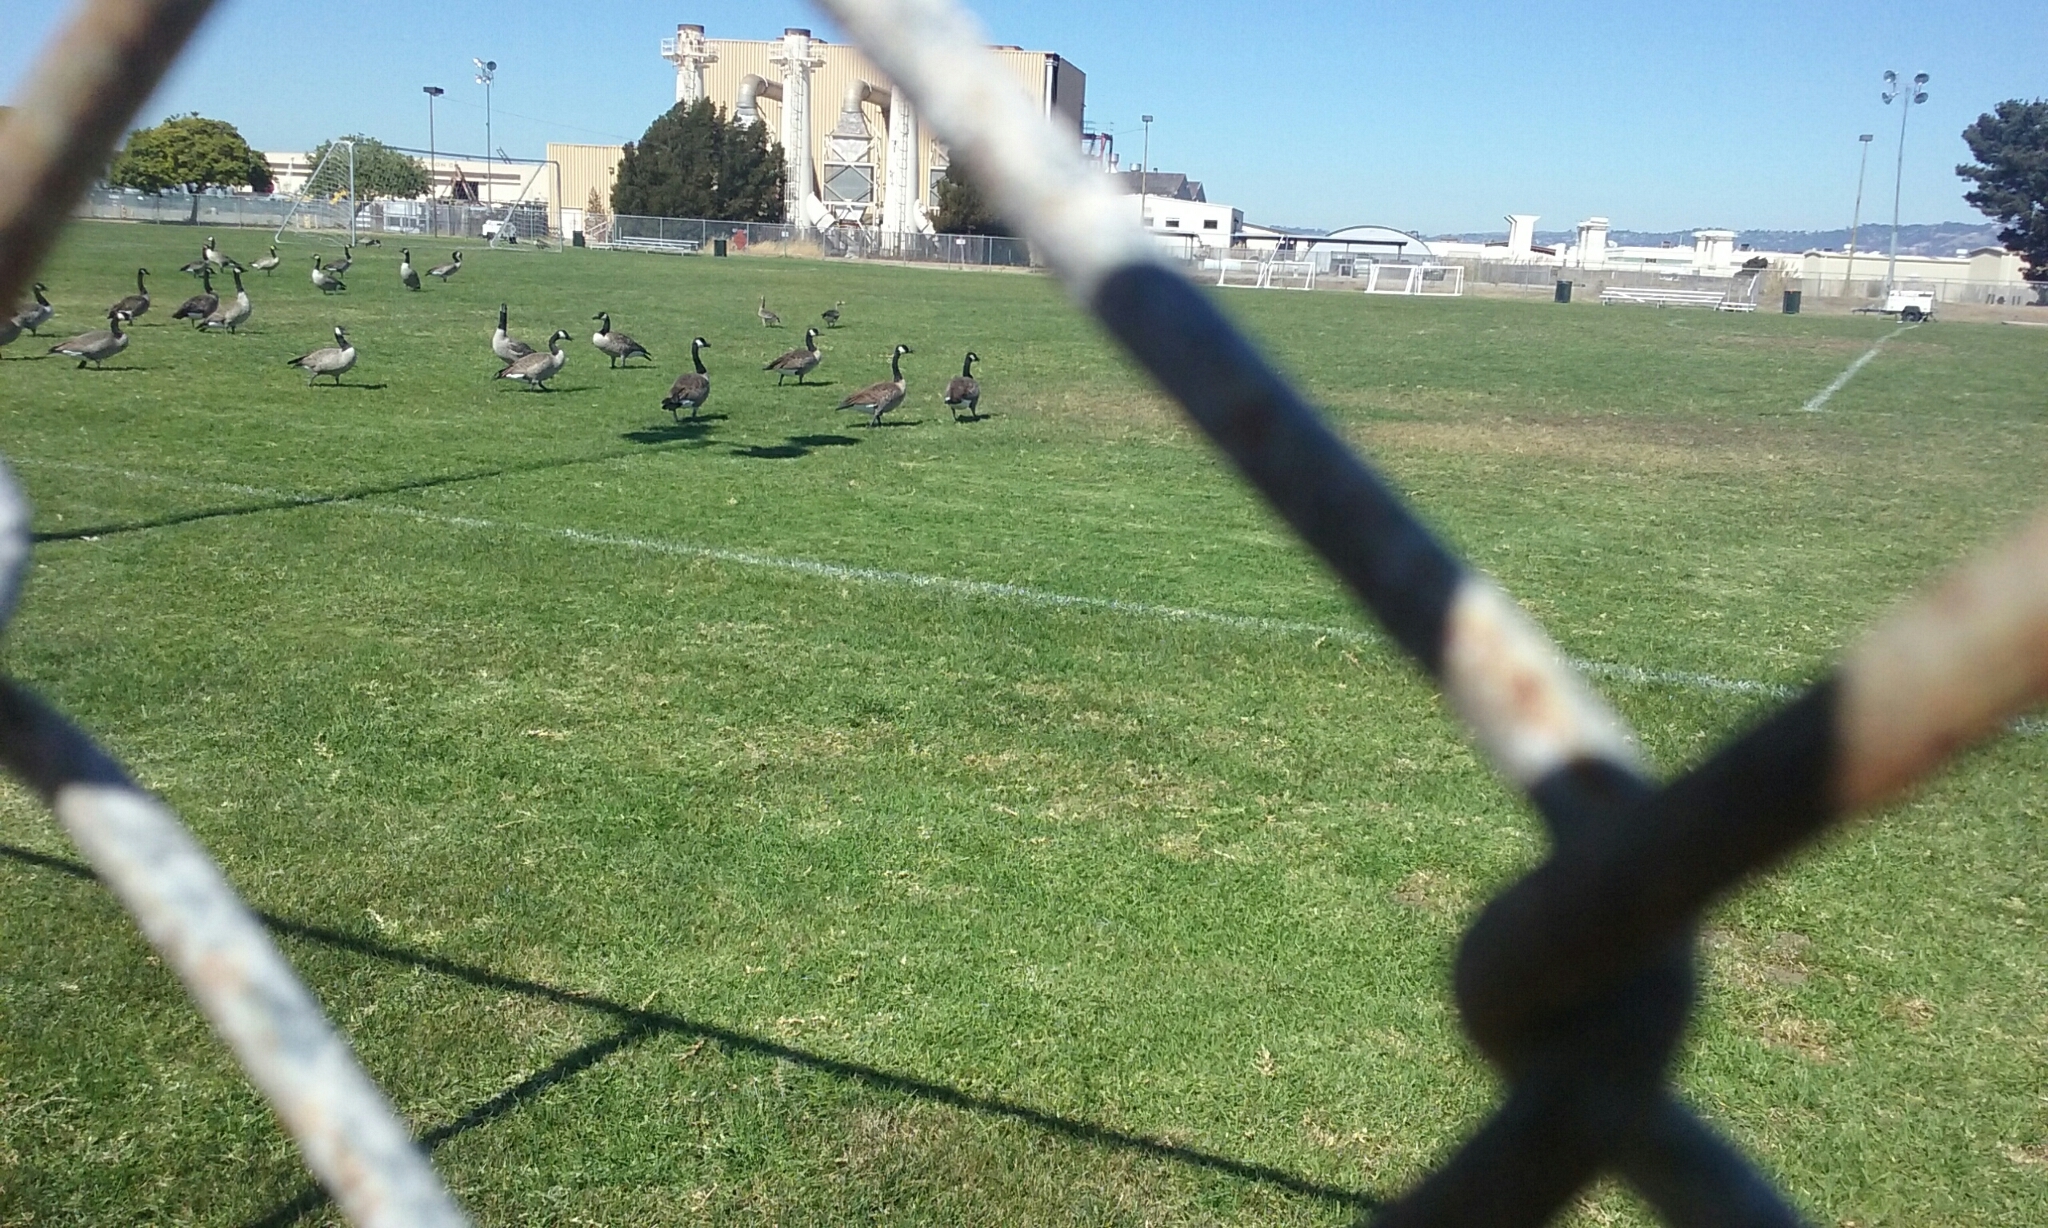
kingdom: Animalia
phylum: Chordata
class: Aves
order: Anseriformes
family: Anatidae
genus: Branta
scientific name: Branta canadensis
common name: Canada goose
